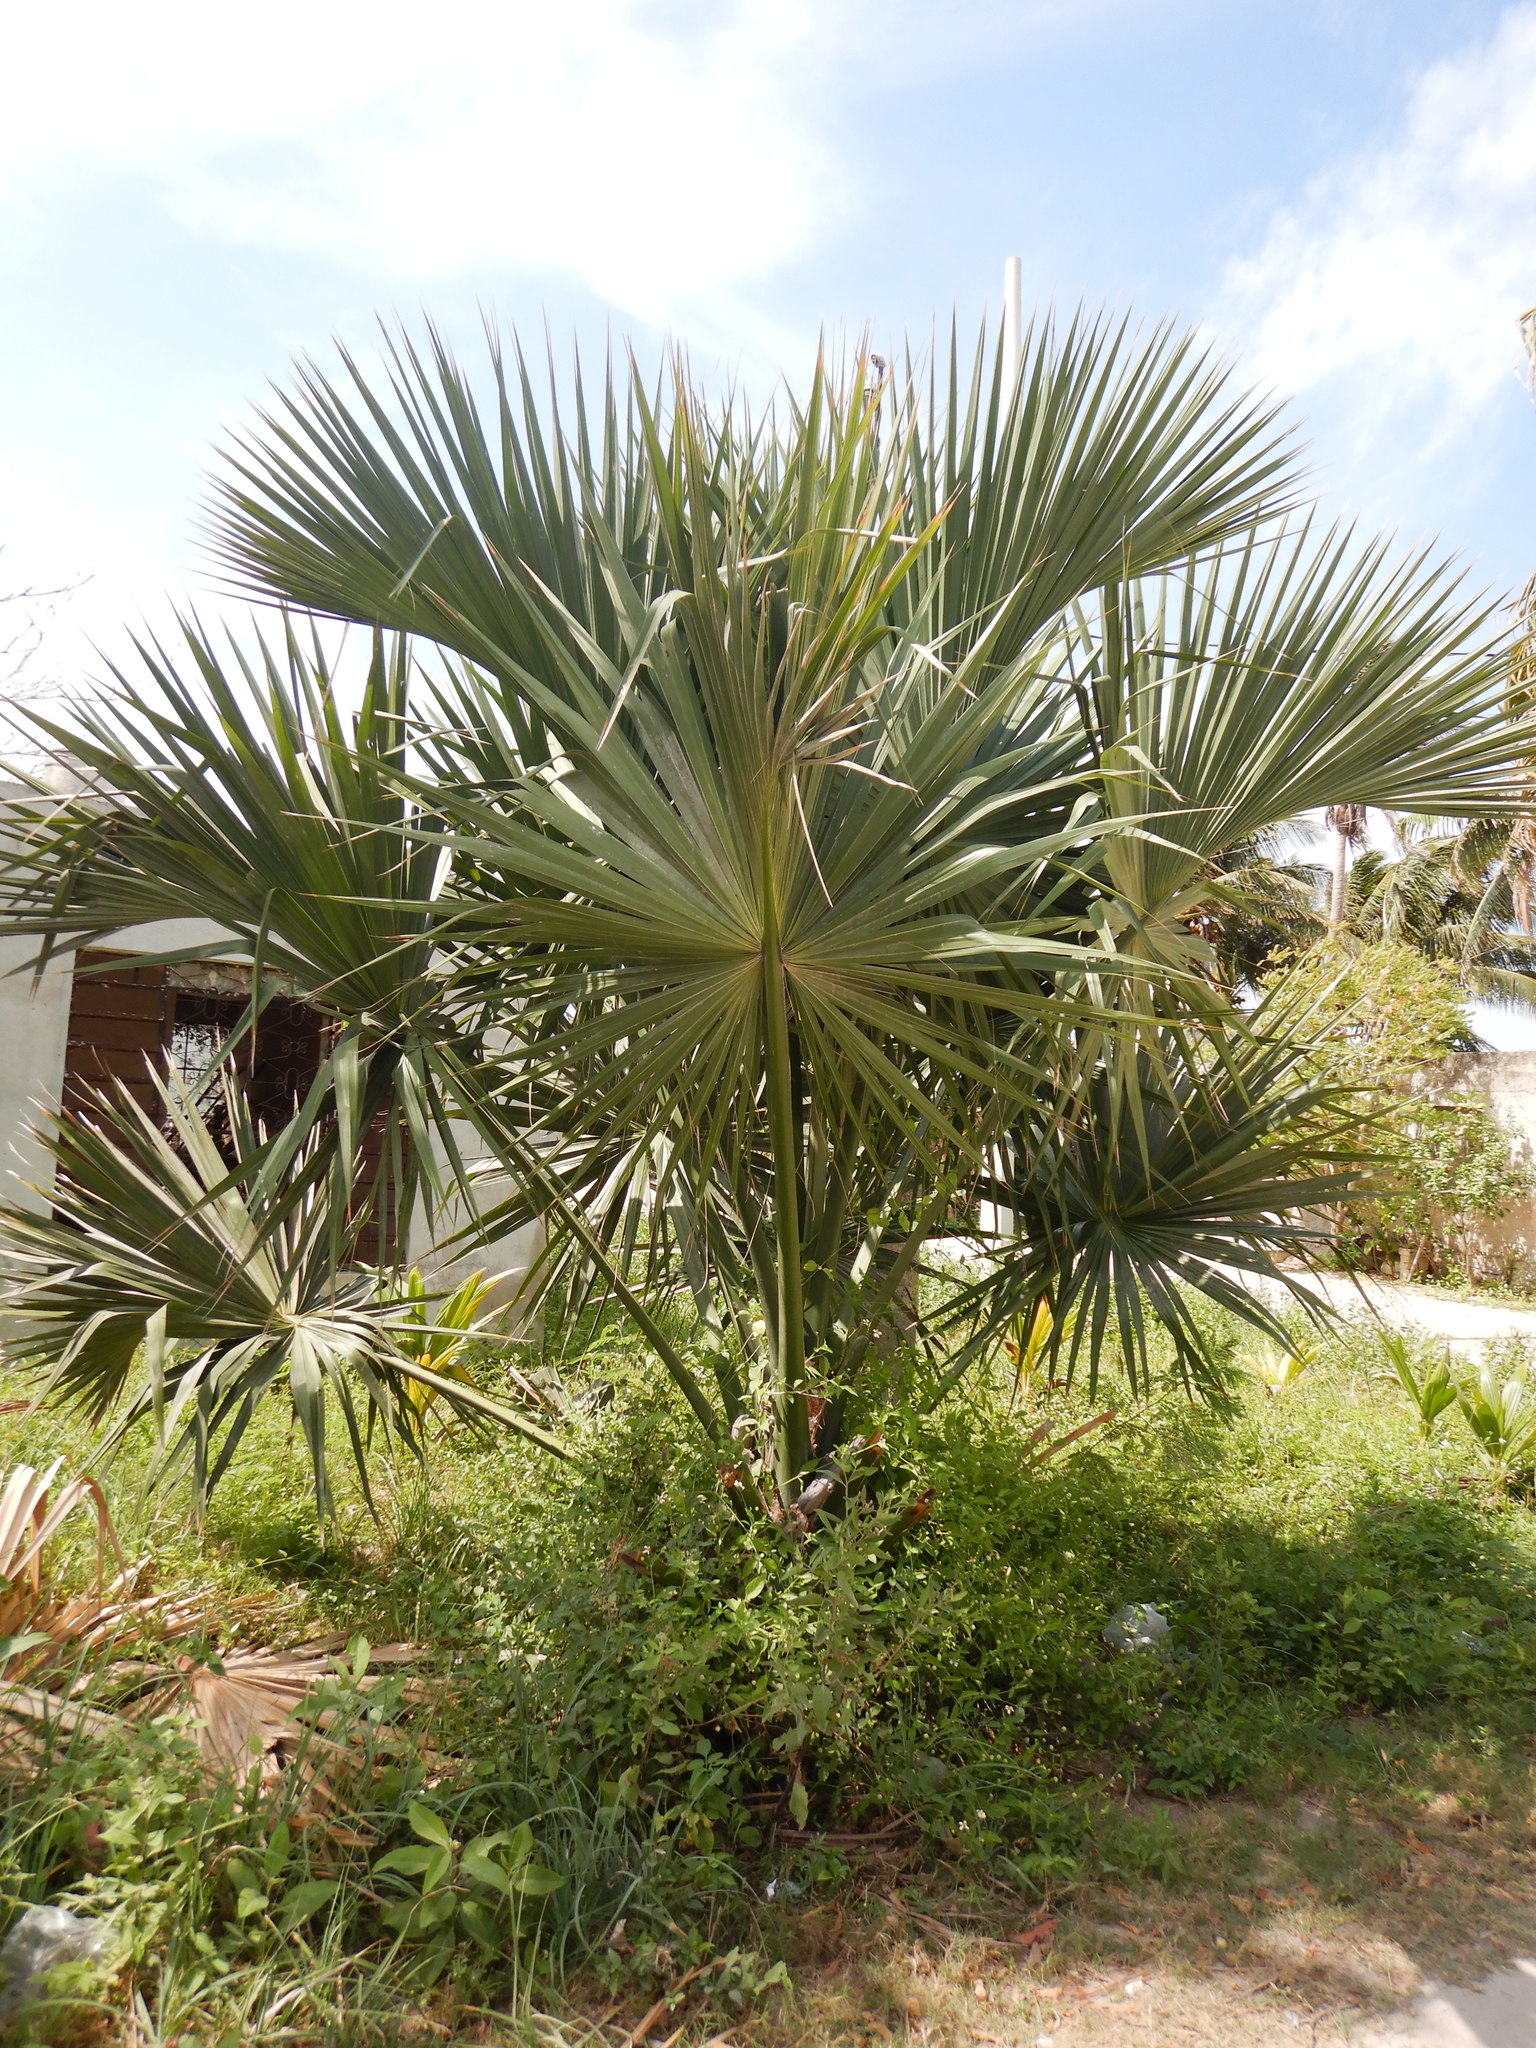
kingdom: Plantae
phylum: Tracheophyta
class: Liliopsida
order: Arecales
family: Arecaceae
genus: Sabal
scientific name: Sabal mexicana
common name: Texas palmetto
